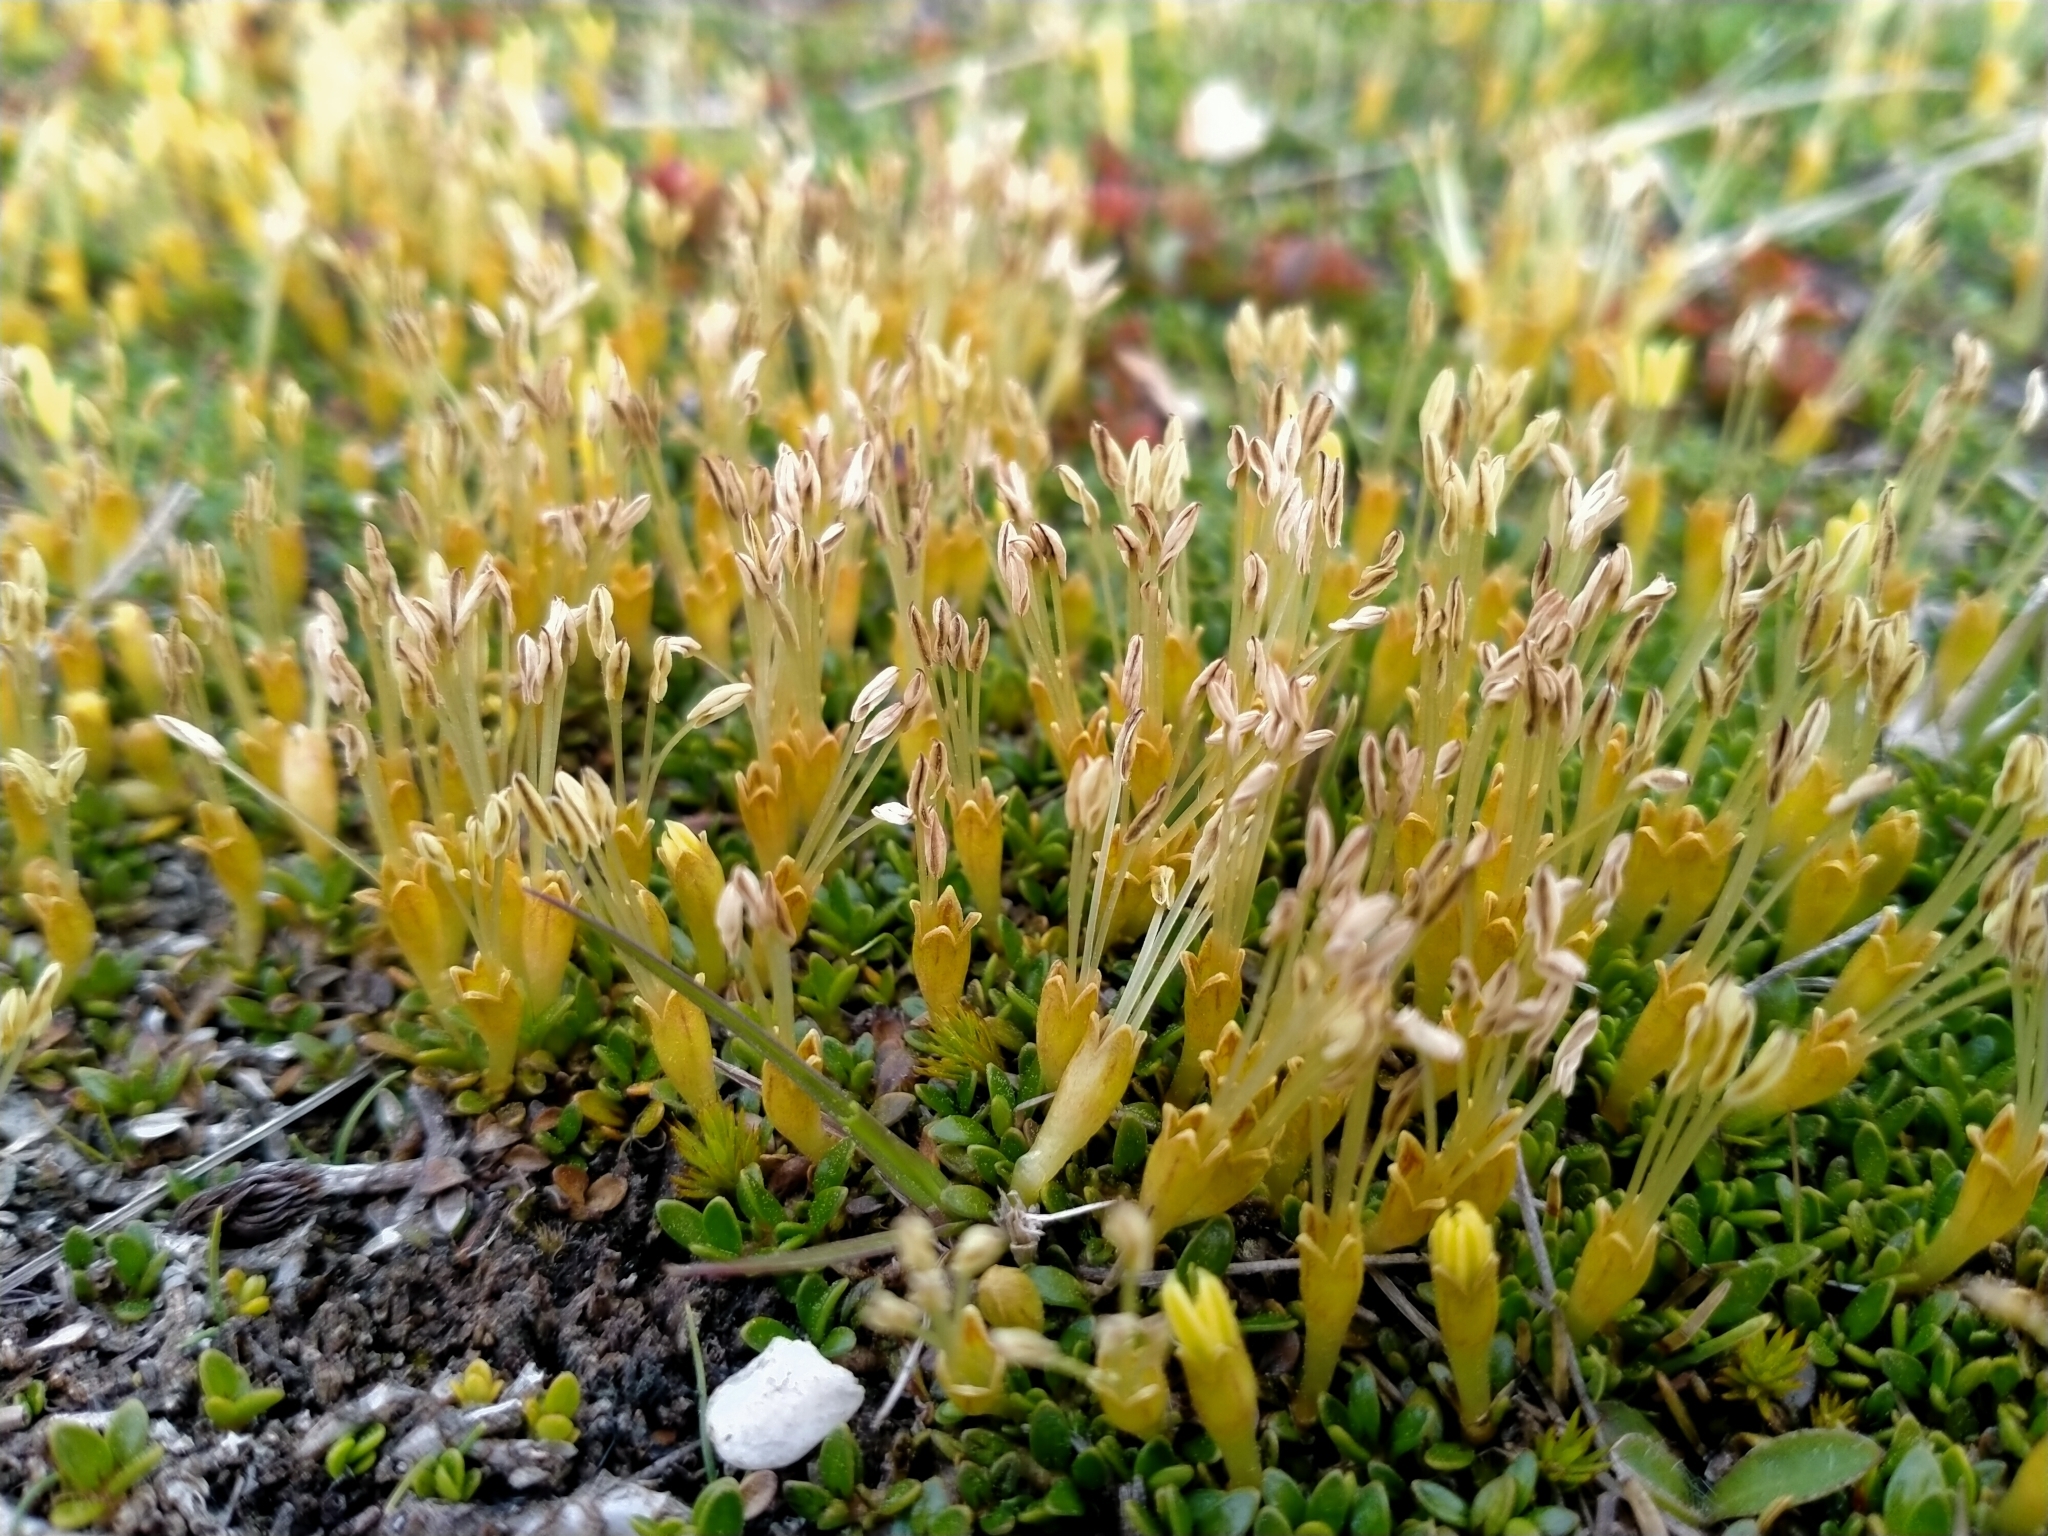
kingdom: Plantae
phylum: Tracheophyta
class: Magnoliopsida
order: Gentianales
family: Rubiaceae
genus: Coprosma
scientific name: Coprosma perpusilla
